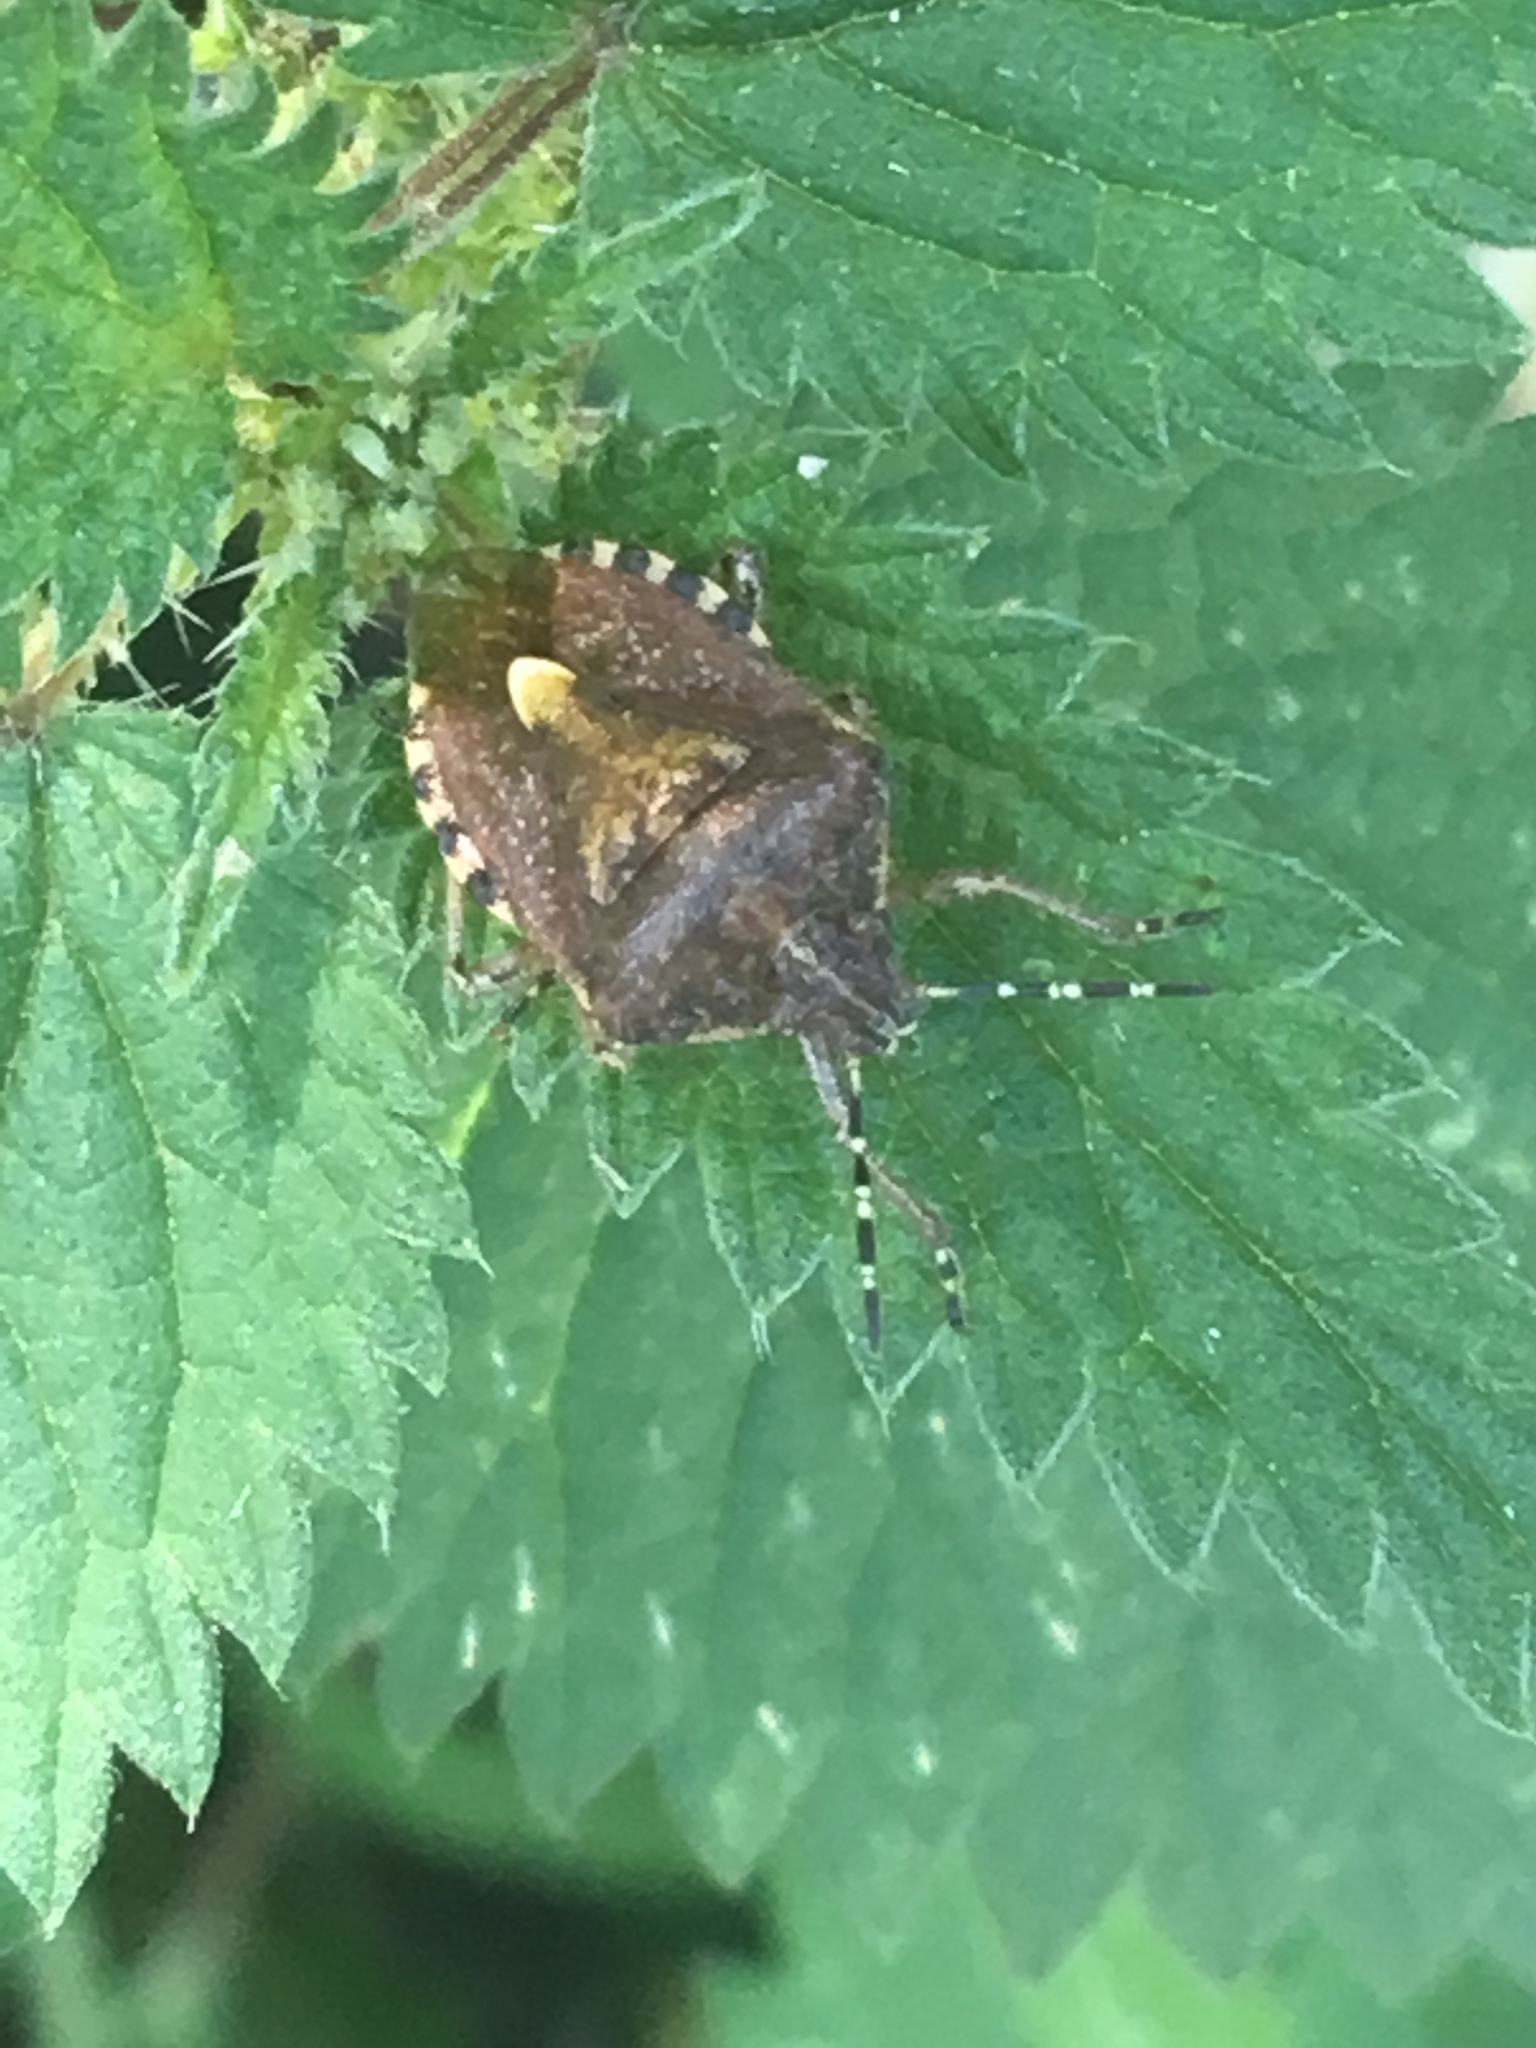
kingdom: Animalia
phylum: Arthropoda
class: Insecta
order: Hemiptera
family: Pentatomidae
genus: Dolycoris
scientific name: Dolycoris baccarum
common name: Sloe bug
